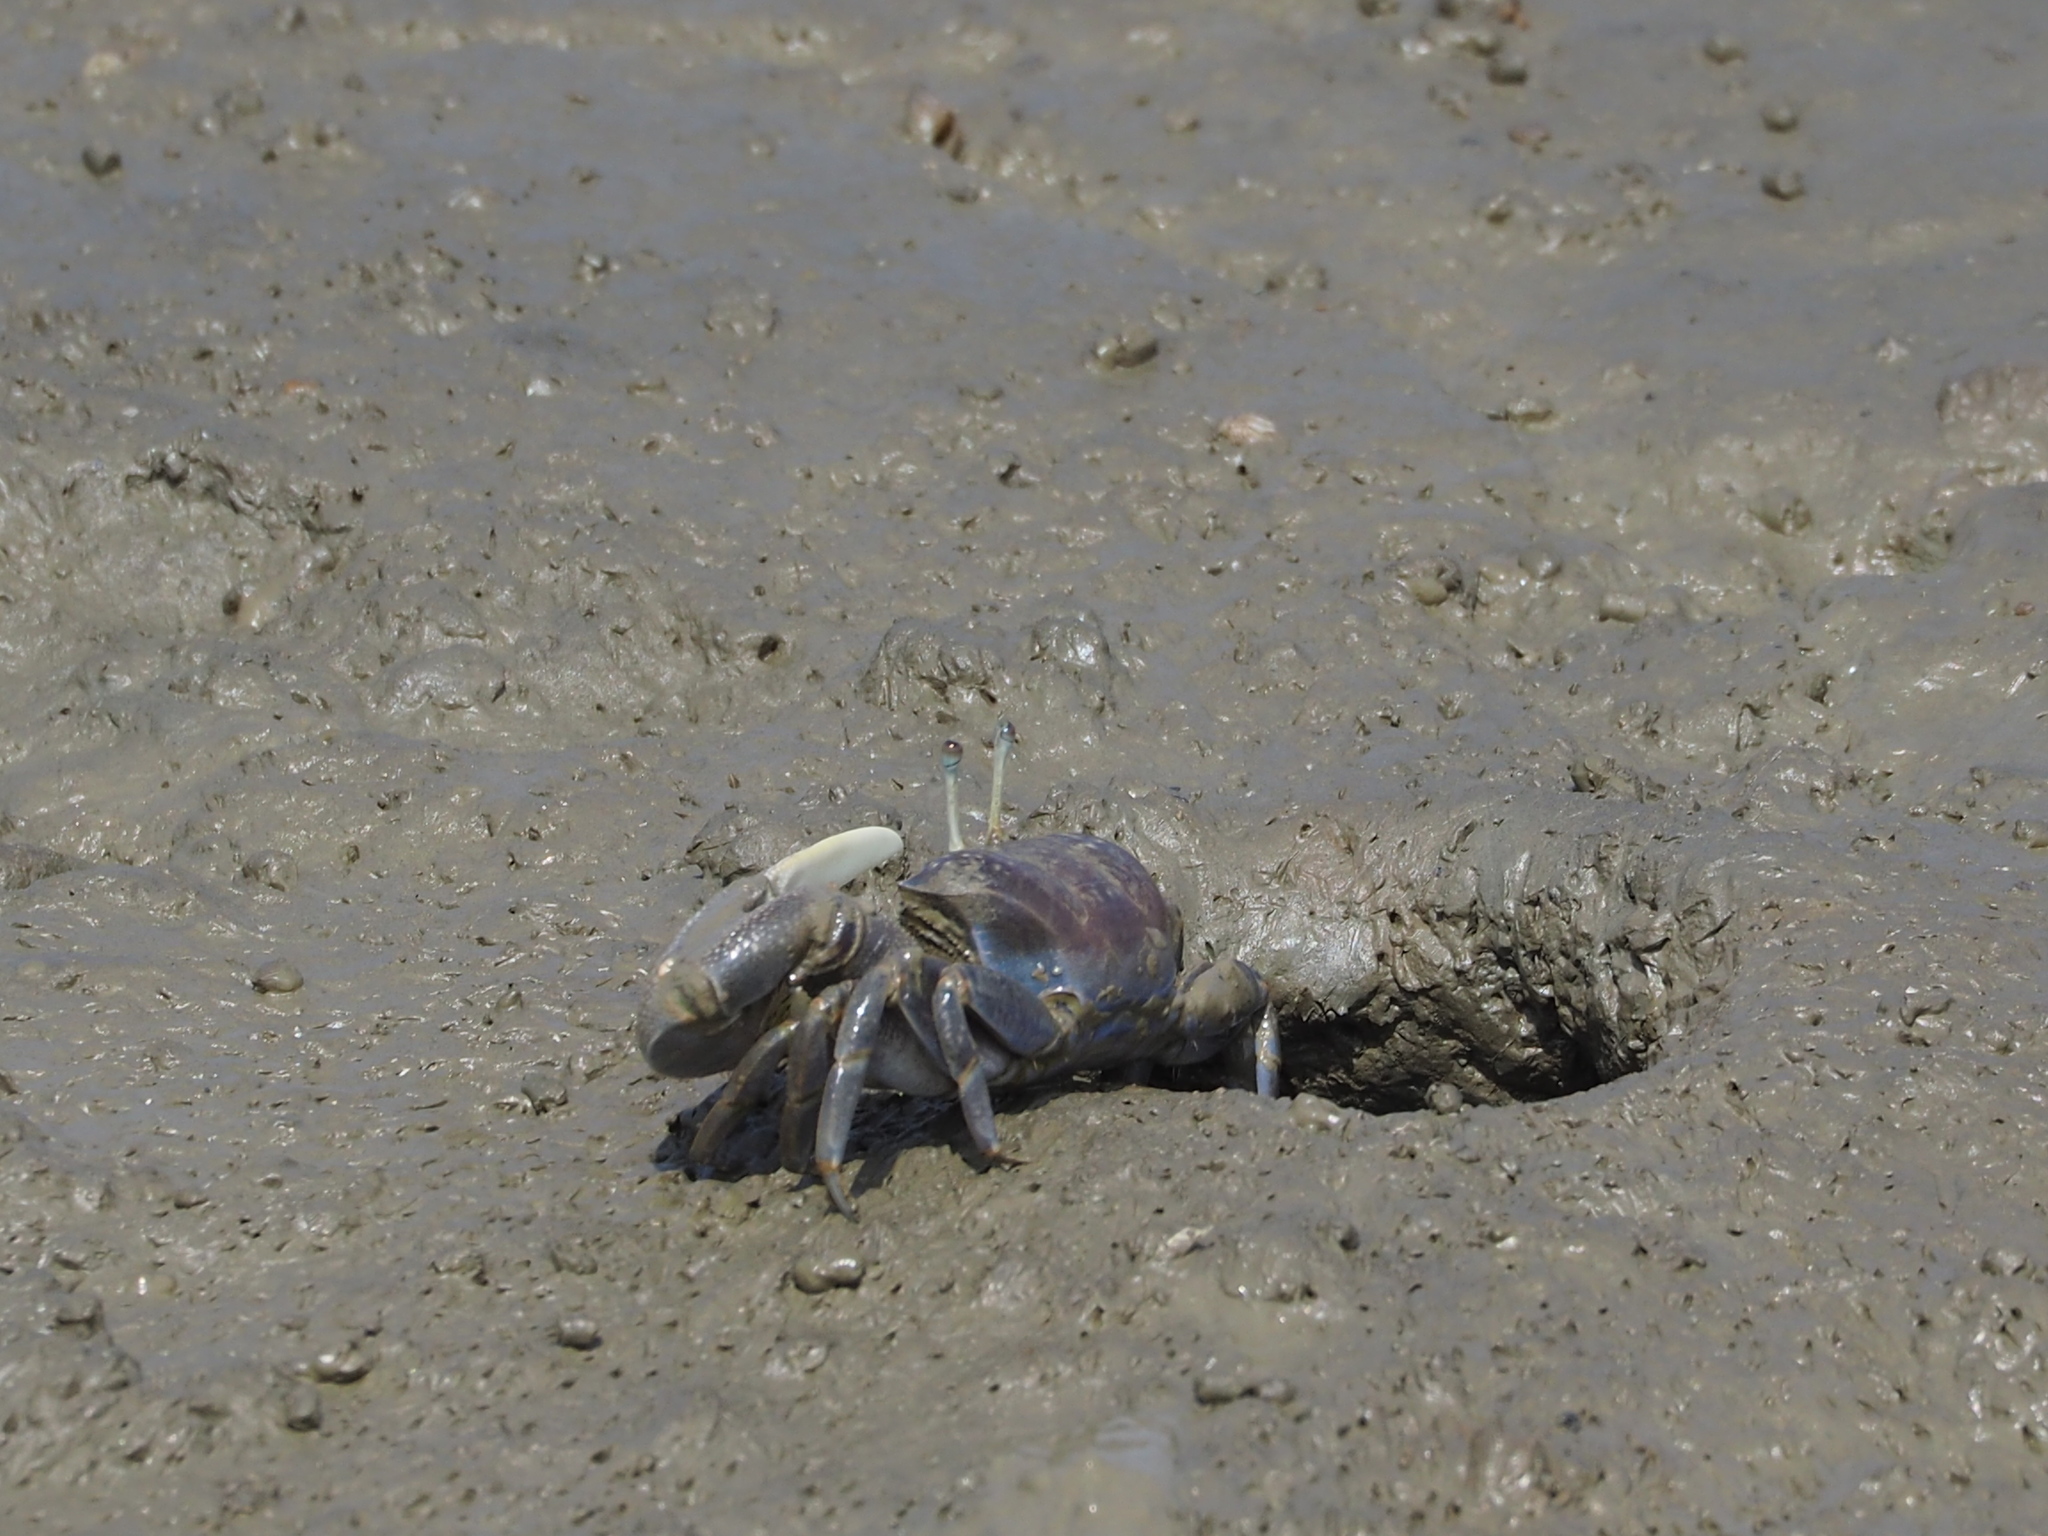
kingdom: Animalia
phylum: Arthropoda
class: Malacostraca
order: Decapoda
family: Ocypodidae
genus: Xeruca
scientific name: Xeruca formosensis
